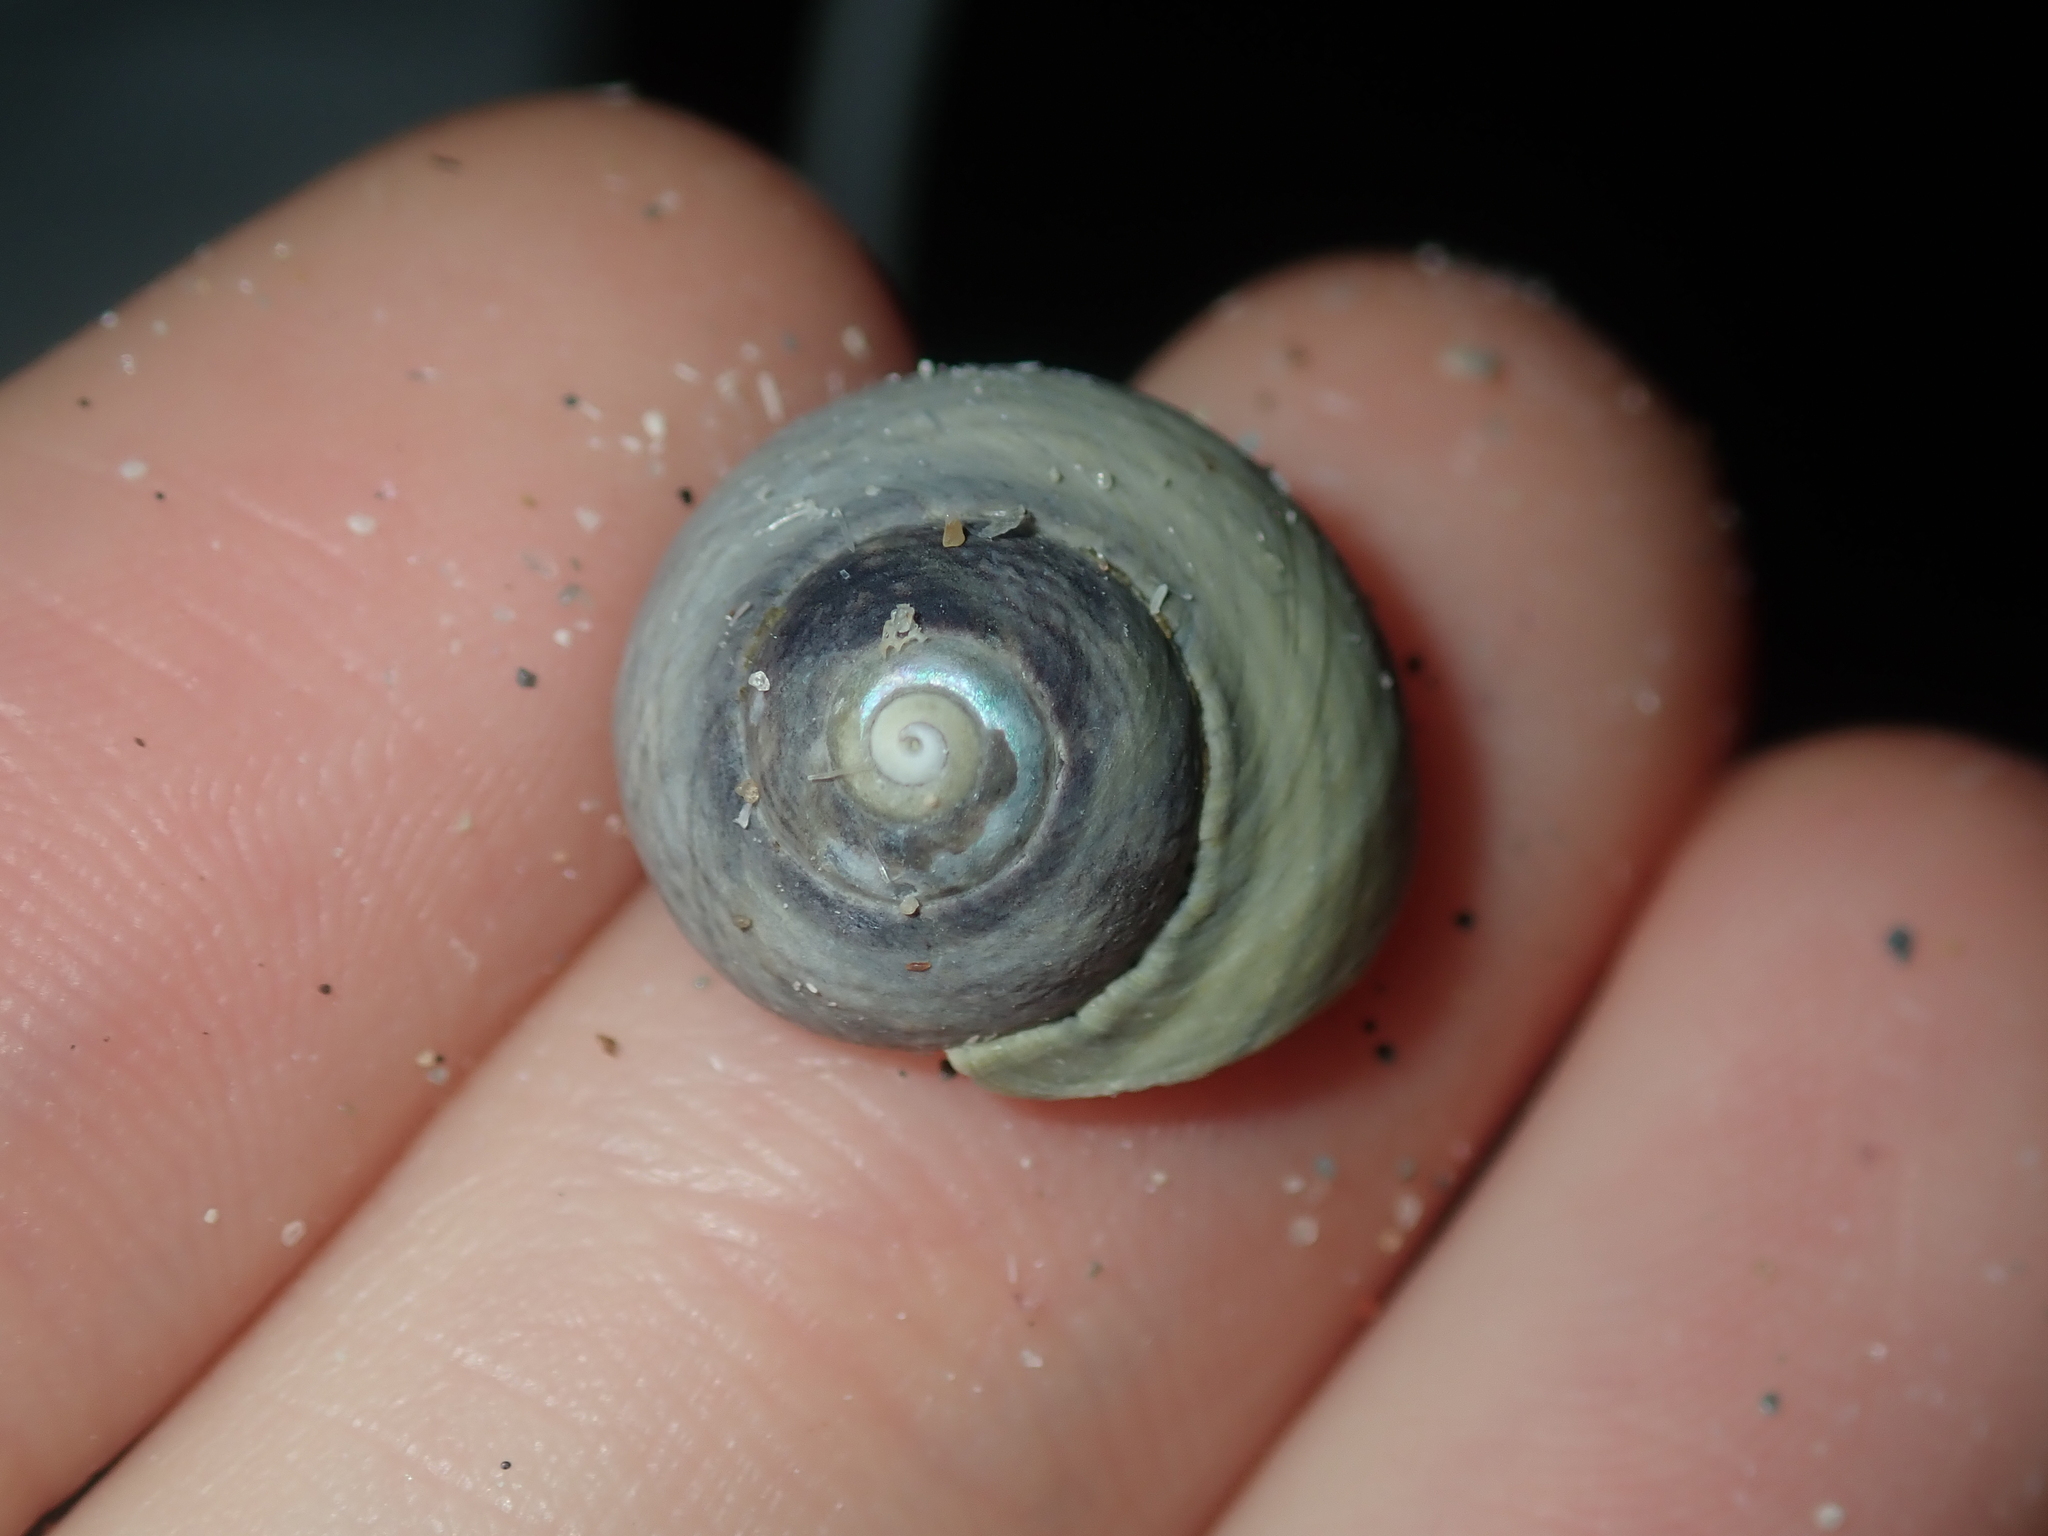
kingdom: Animalia
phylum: Mollusca
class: Gastropoda
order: Trochida
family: Trochidae
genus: Austrocochlea
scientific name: Austrocochlea rudis
